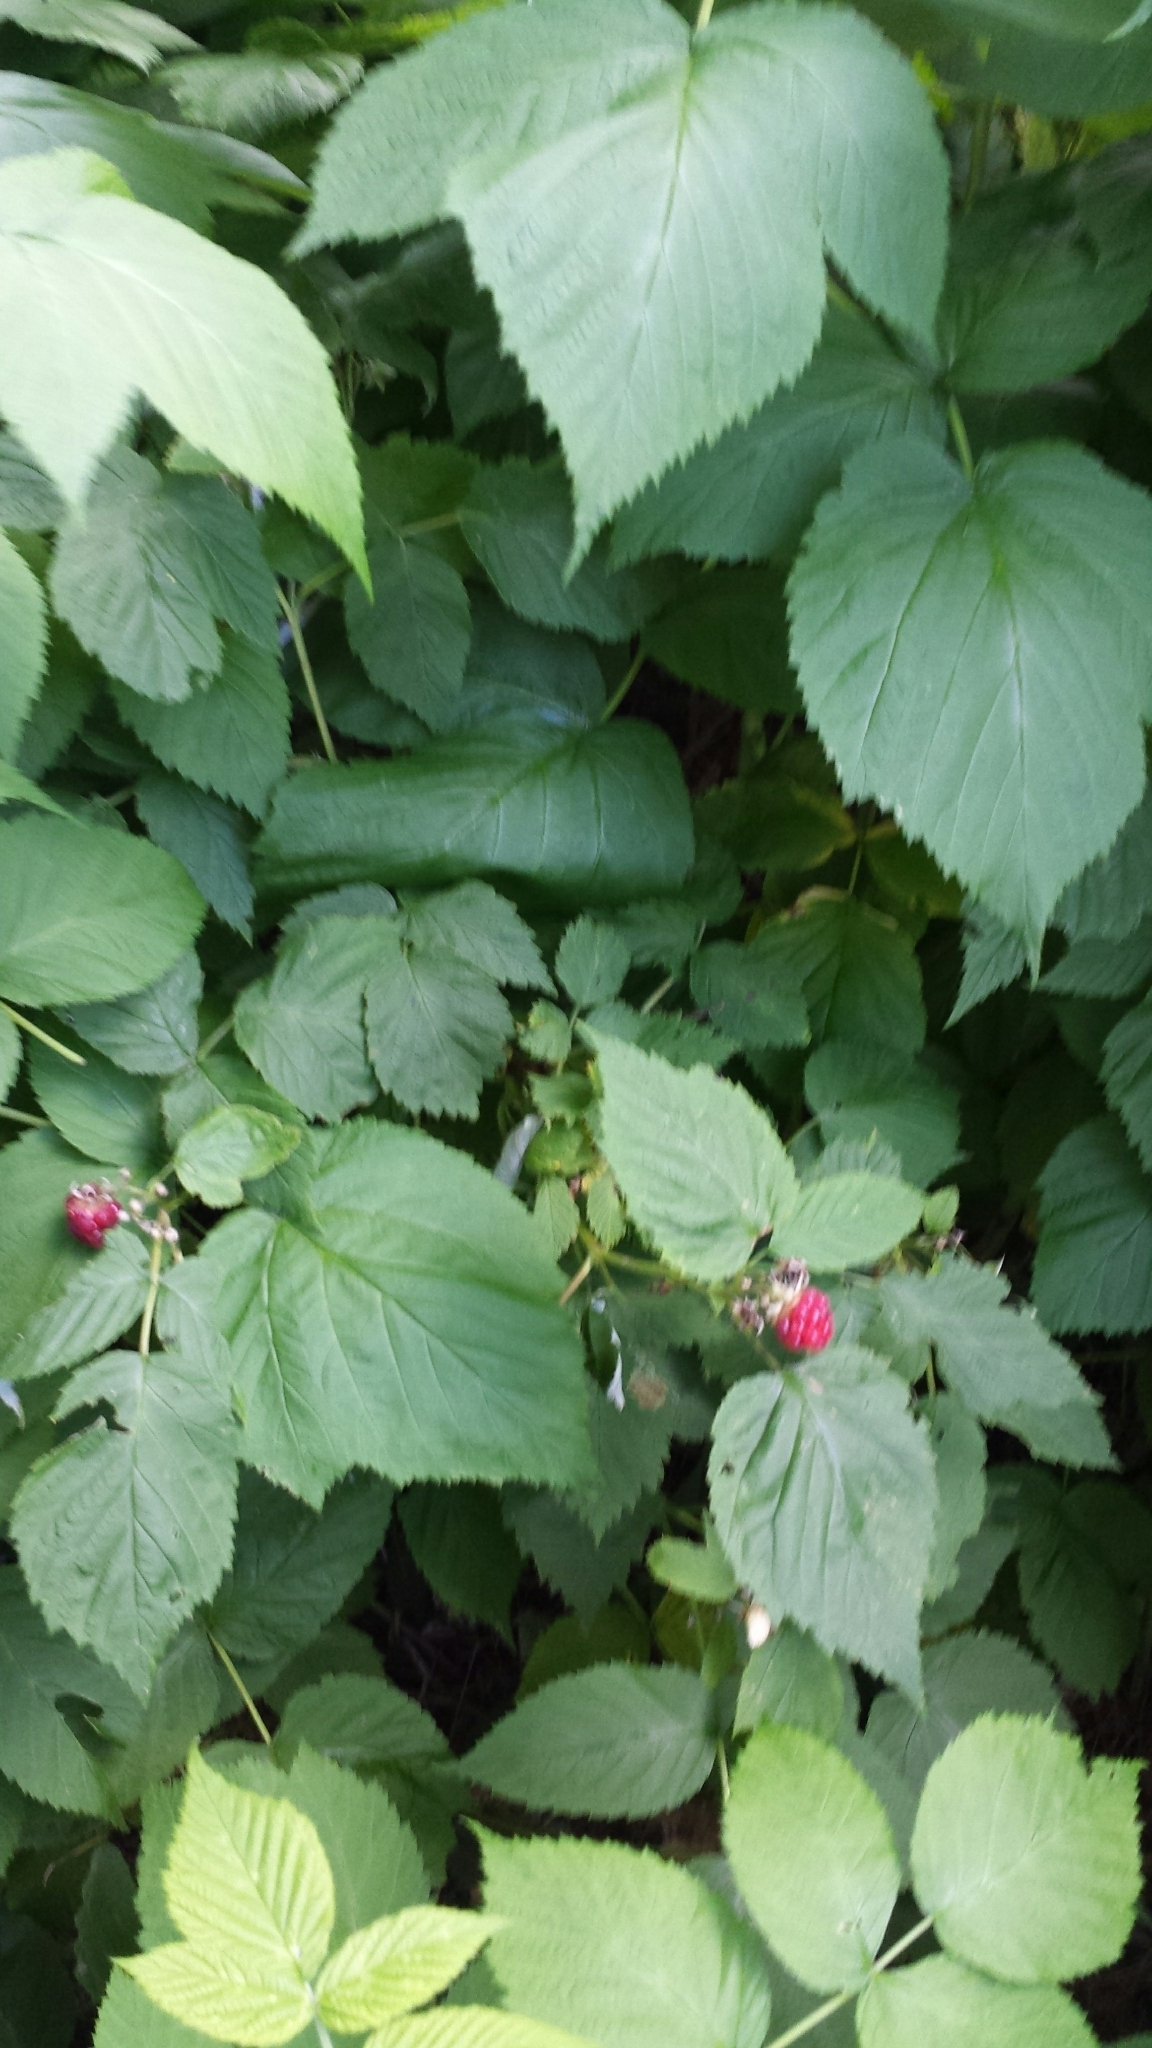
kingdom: Plantae
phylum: Tracheophyta
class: Magnoliopsida
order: Rosales
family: Rosaceae
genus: Rubus
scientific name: Rubus idaeus
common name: Raspberry
